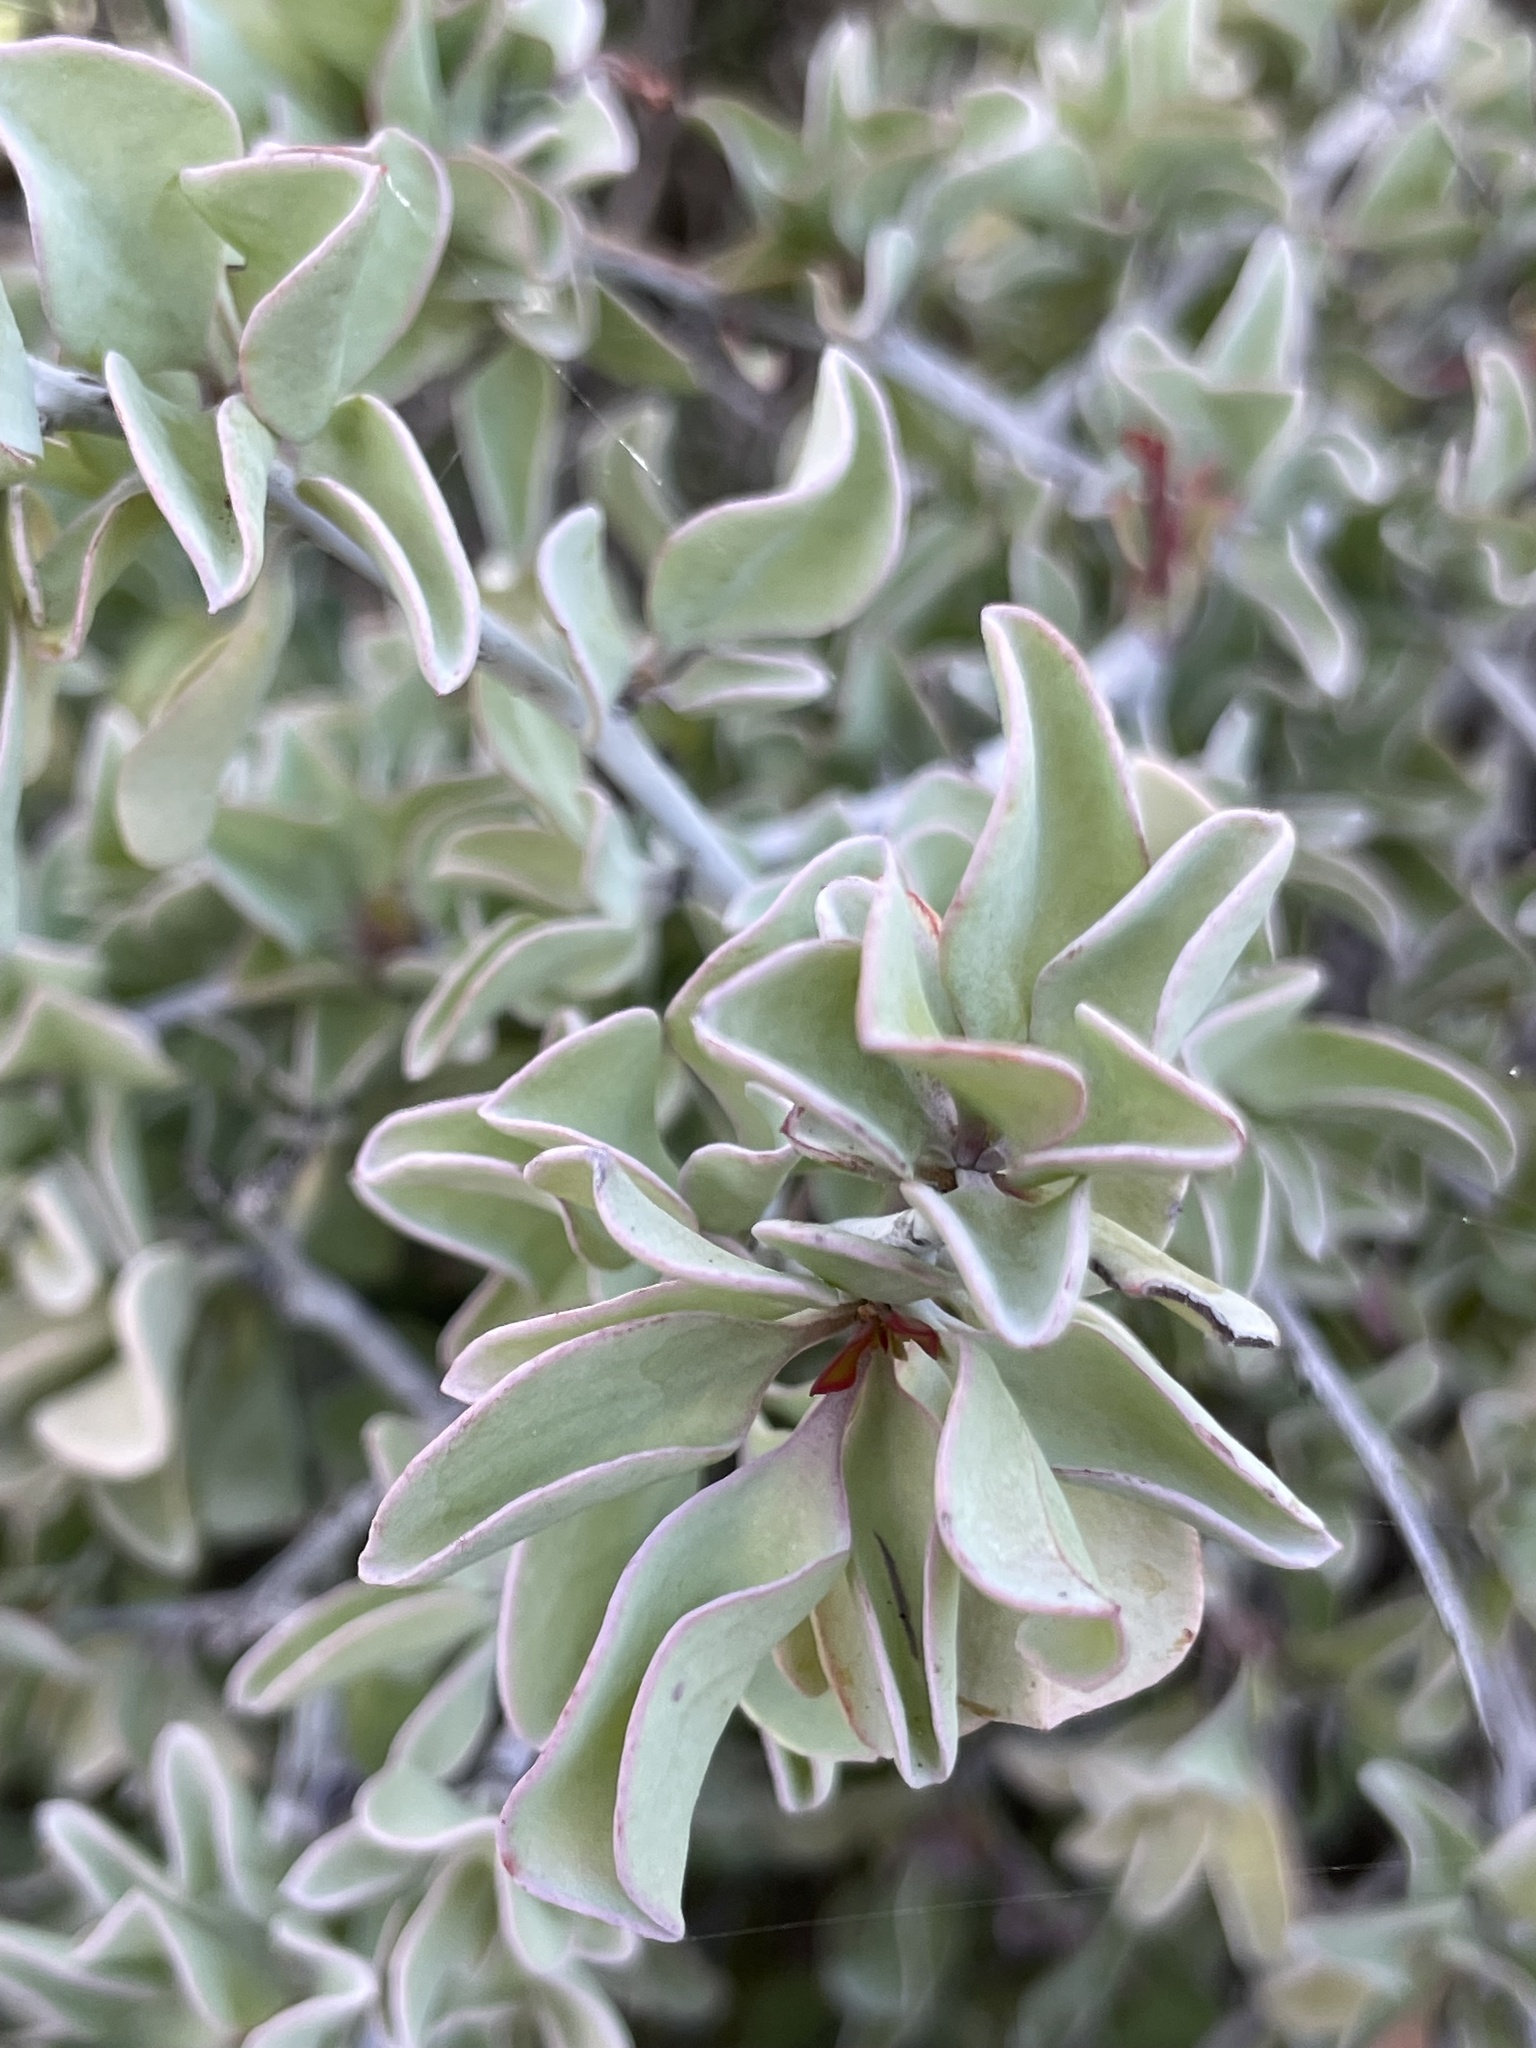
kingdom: Plantae
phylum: Tracheophyta
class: Magnoliopsida
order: Santalales
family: Ximeniaceae
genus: Ximenia
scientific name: Ximenia glauca
